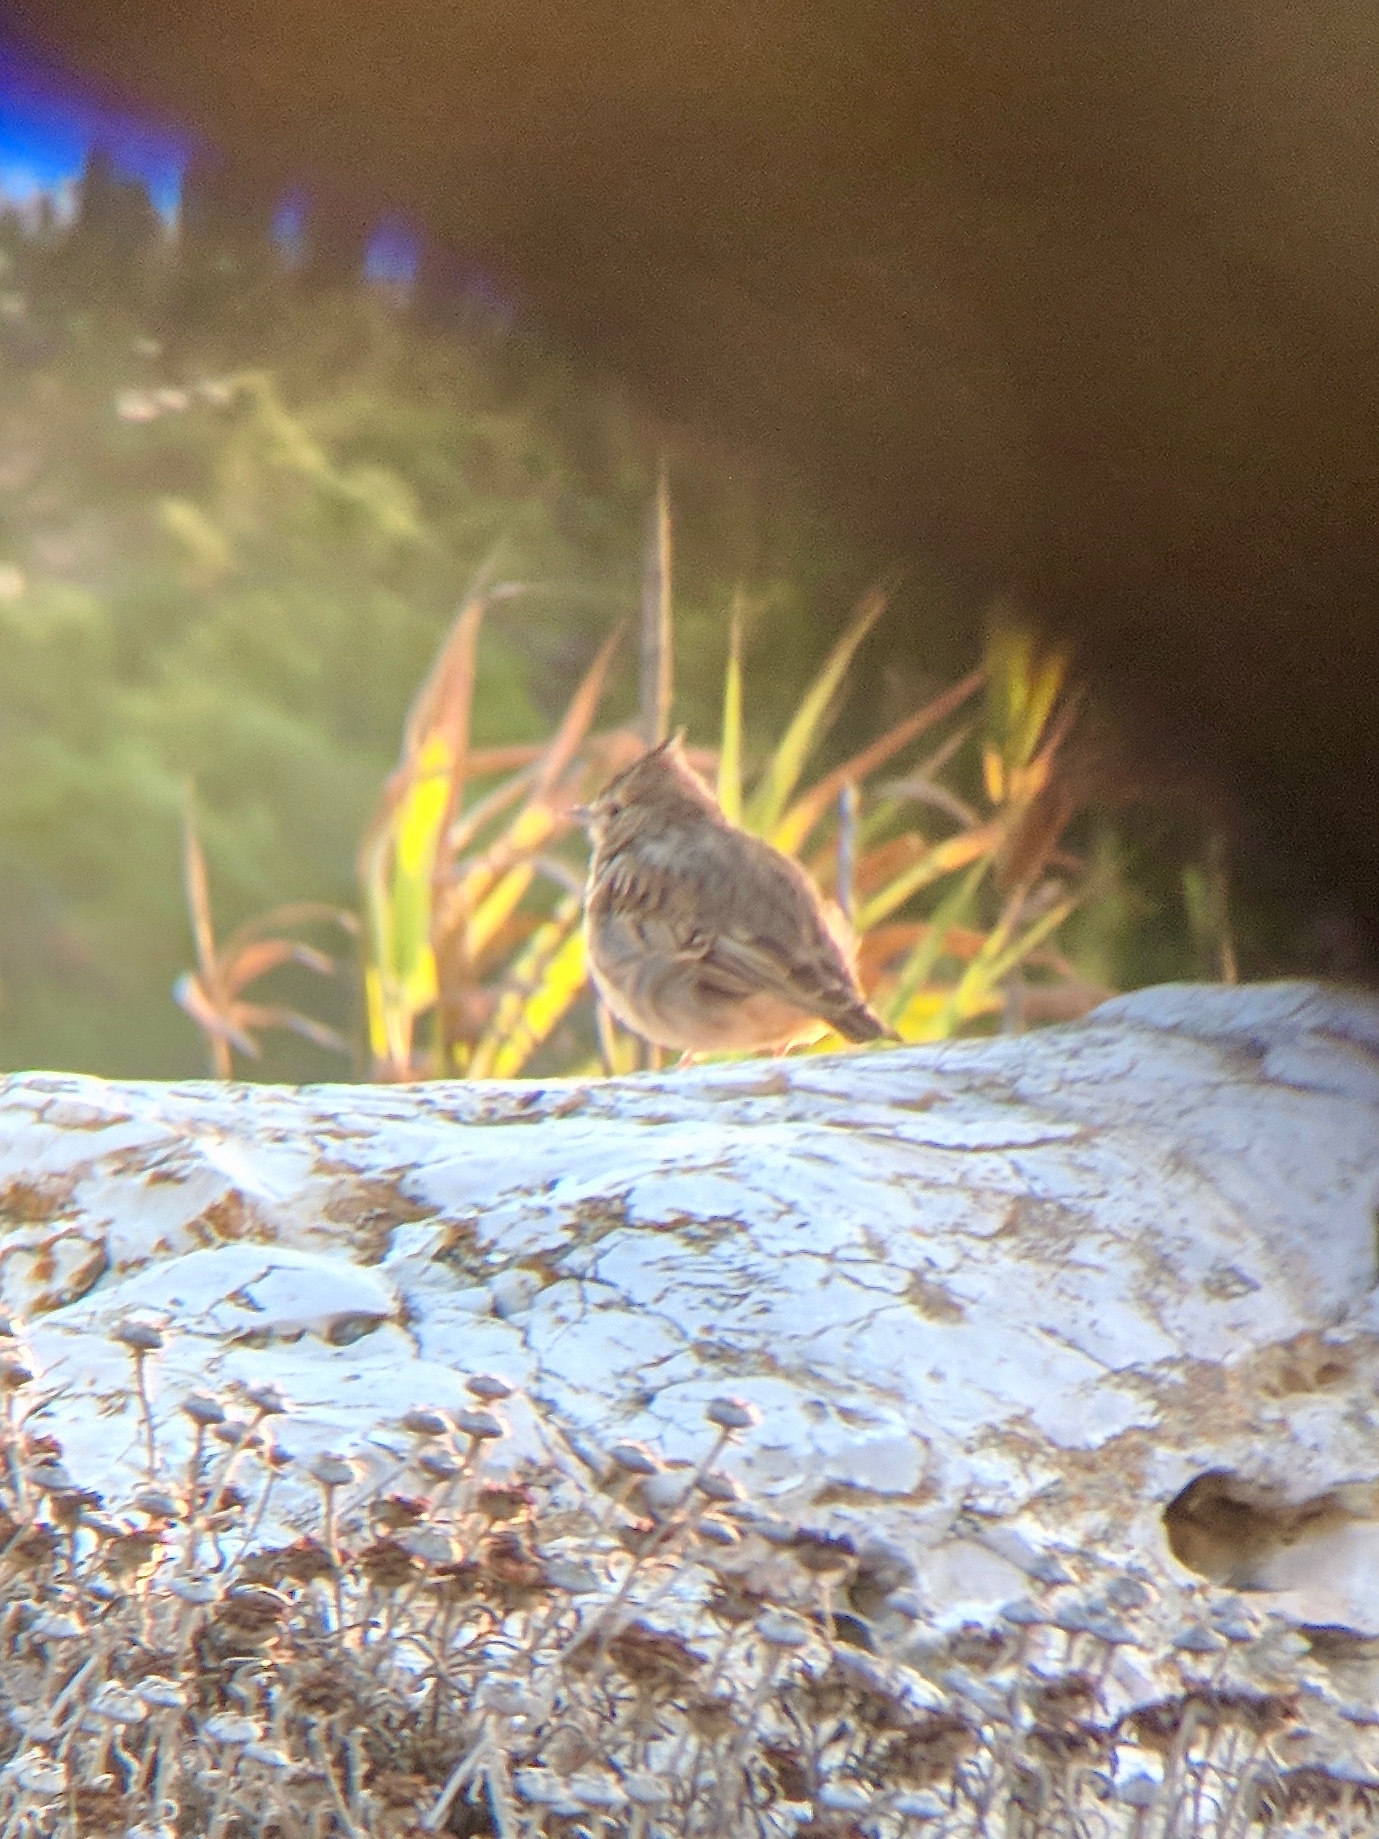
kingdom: Animalia
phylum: Chordata
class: Aves
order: Passeriformes
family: Alaudidae
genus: Galerida
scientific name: Galerida theklae
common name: Thekla lark
